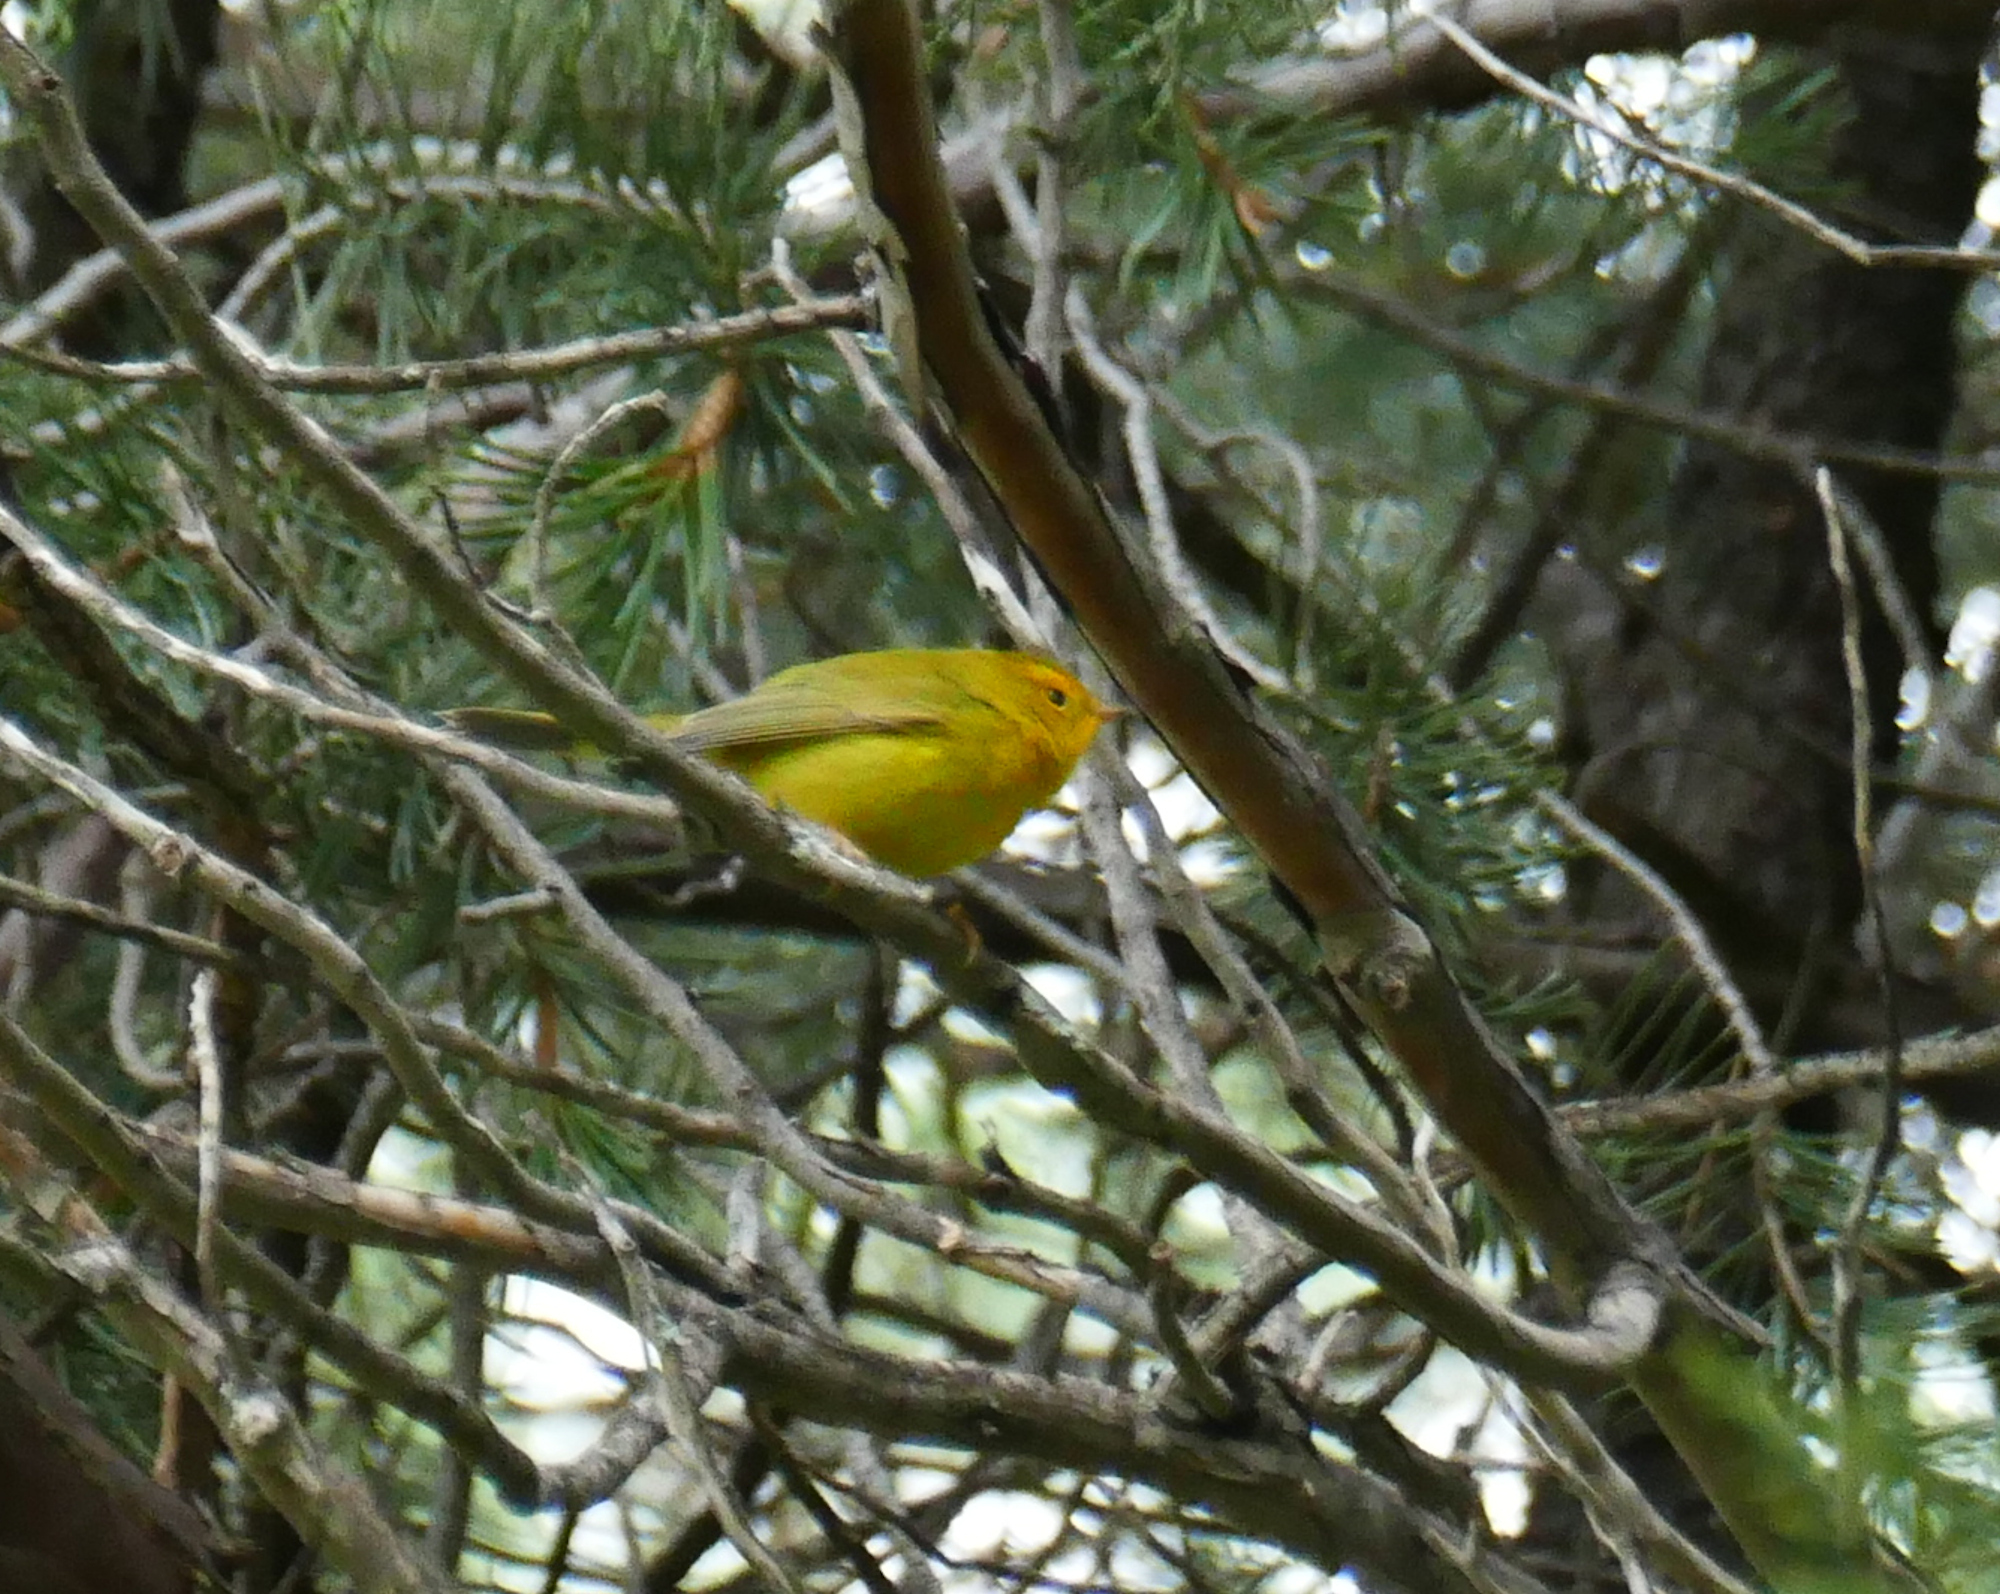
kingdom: Animalia
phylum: Chordata
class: Aves
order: Passeriformes
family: Parulidae
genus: Cardellina
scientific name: Cardellina pusilla
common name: Wilson's warbler
